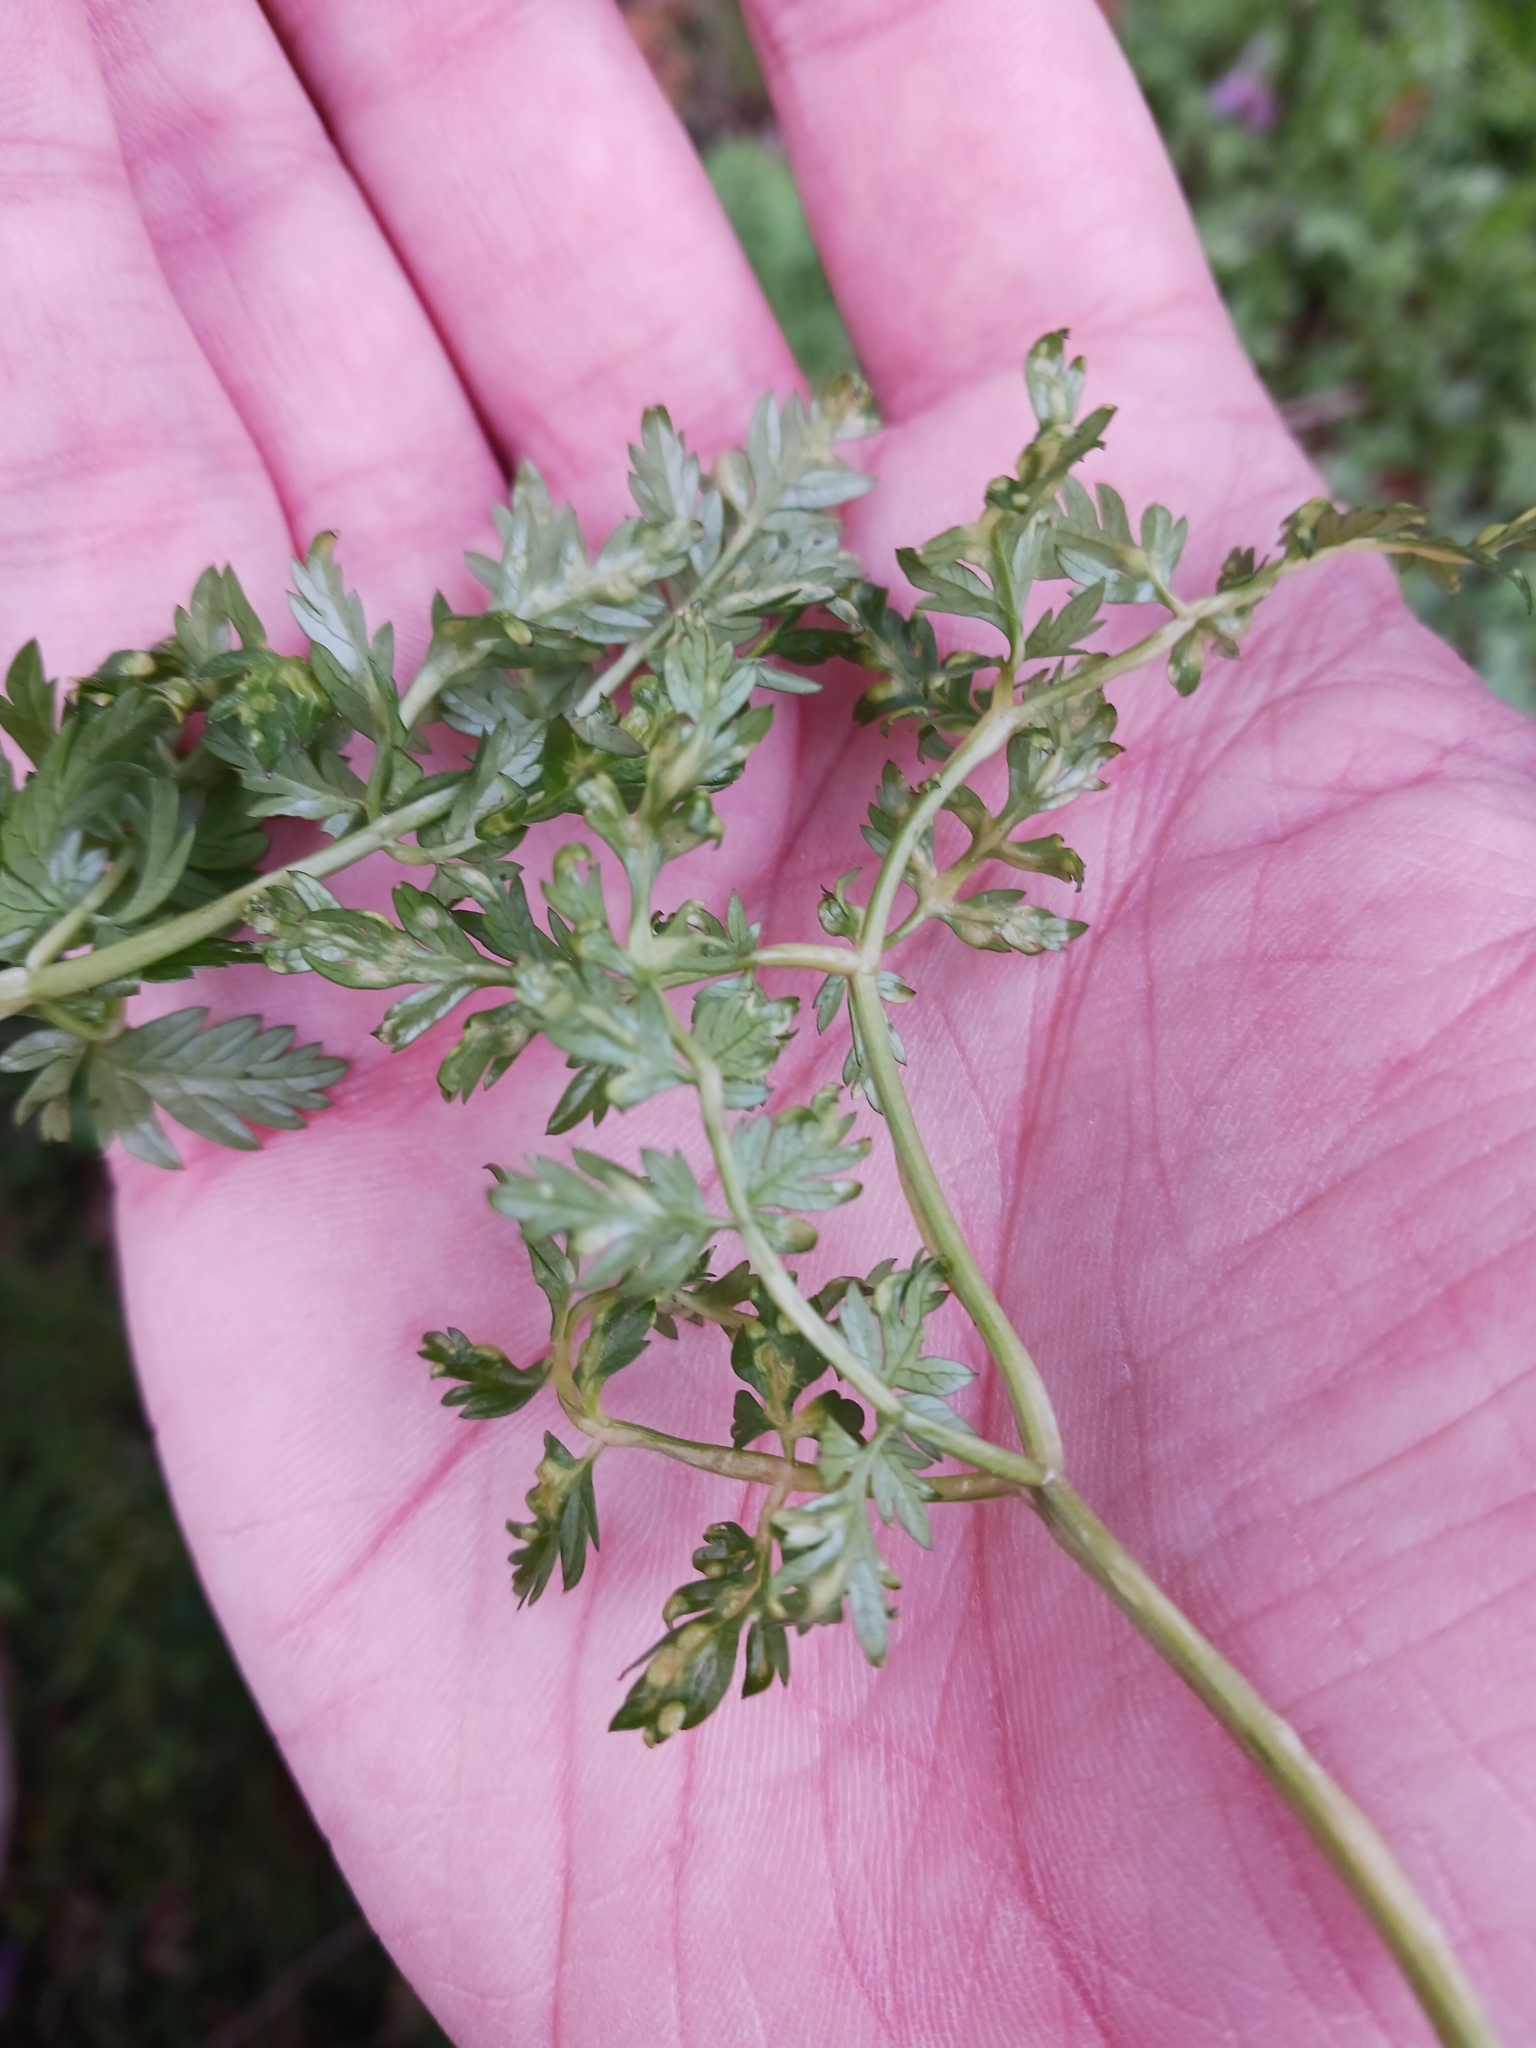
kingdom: Fungi
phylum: Ascomycota
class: Taphrinomycetes
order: Taphrinales
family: Taphrinaceae
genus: Protomyces
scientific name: Protomyces macrosporus
